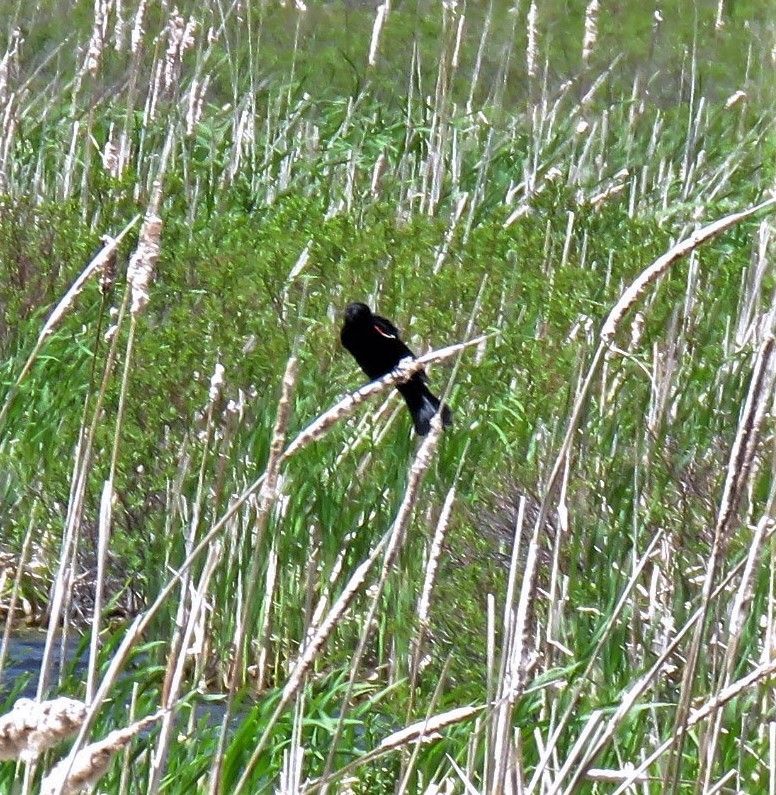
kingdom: Animalia
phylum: Chordata
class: Aves
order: Passeriformes
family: Icteridae
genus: Agelaius
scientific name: Agelaius phoeniceus
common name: Red-winged blackbird
